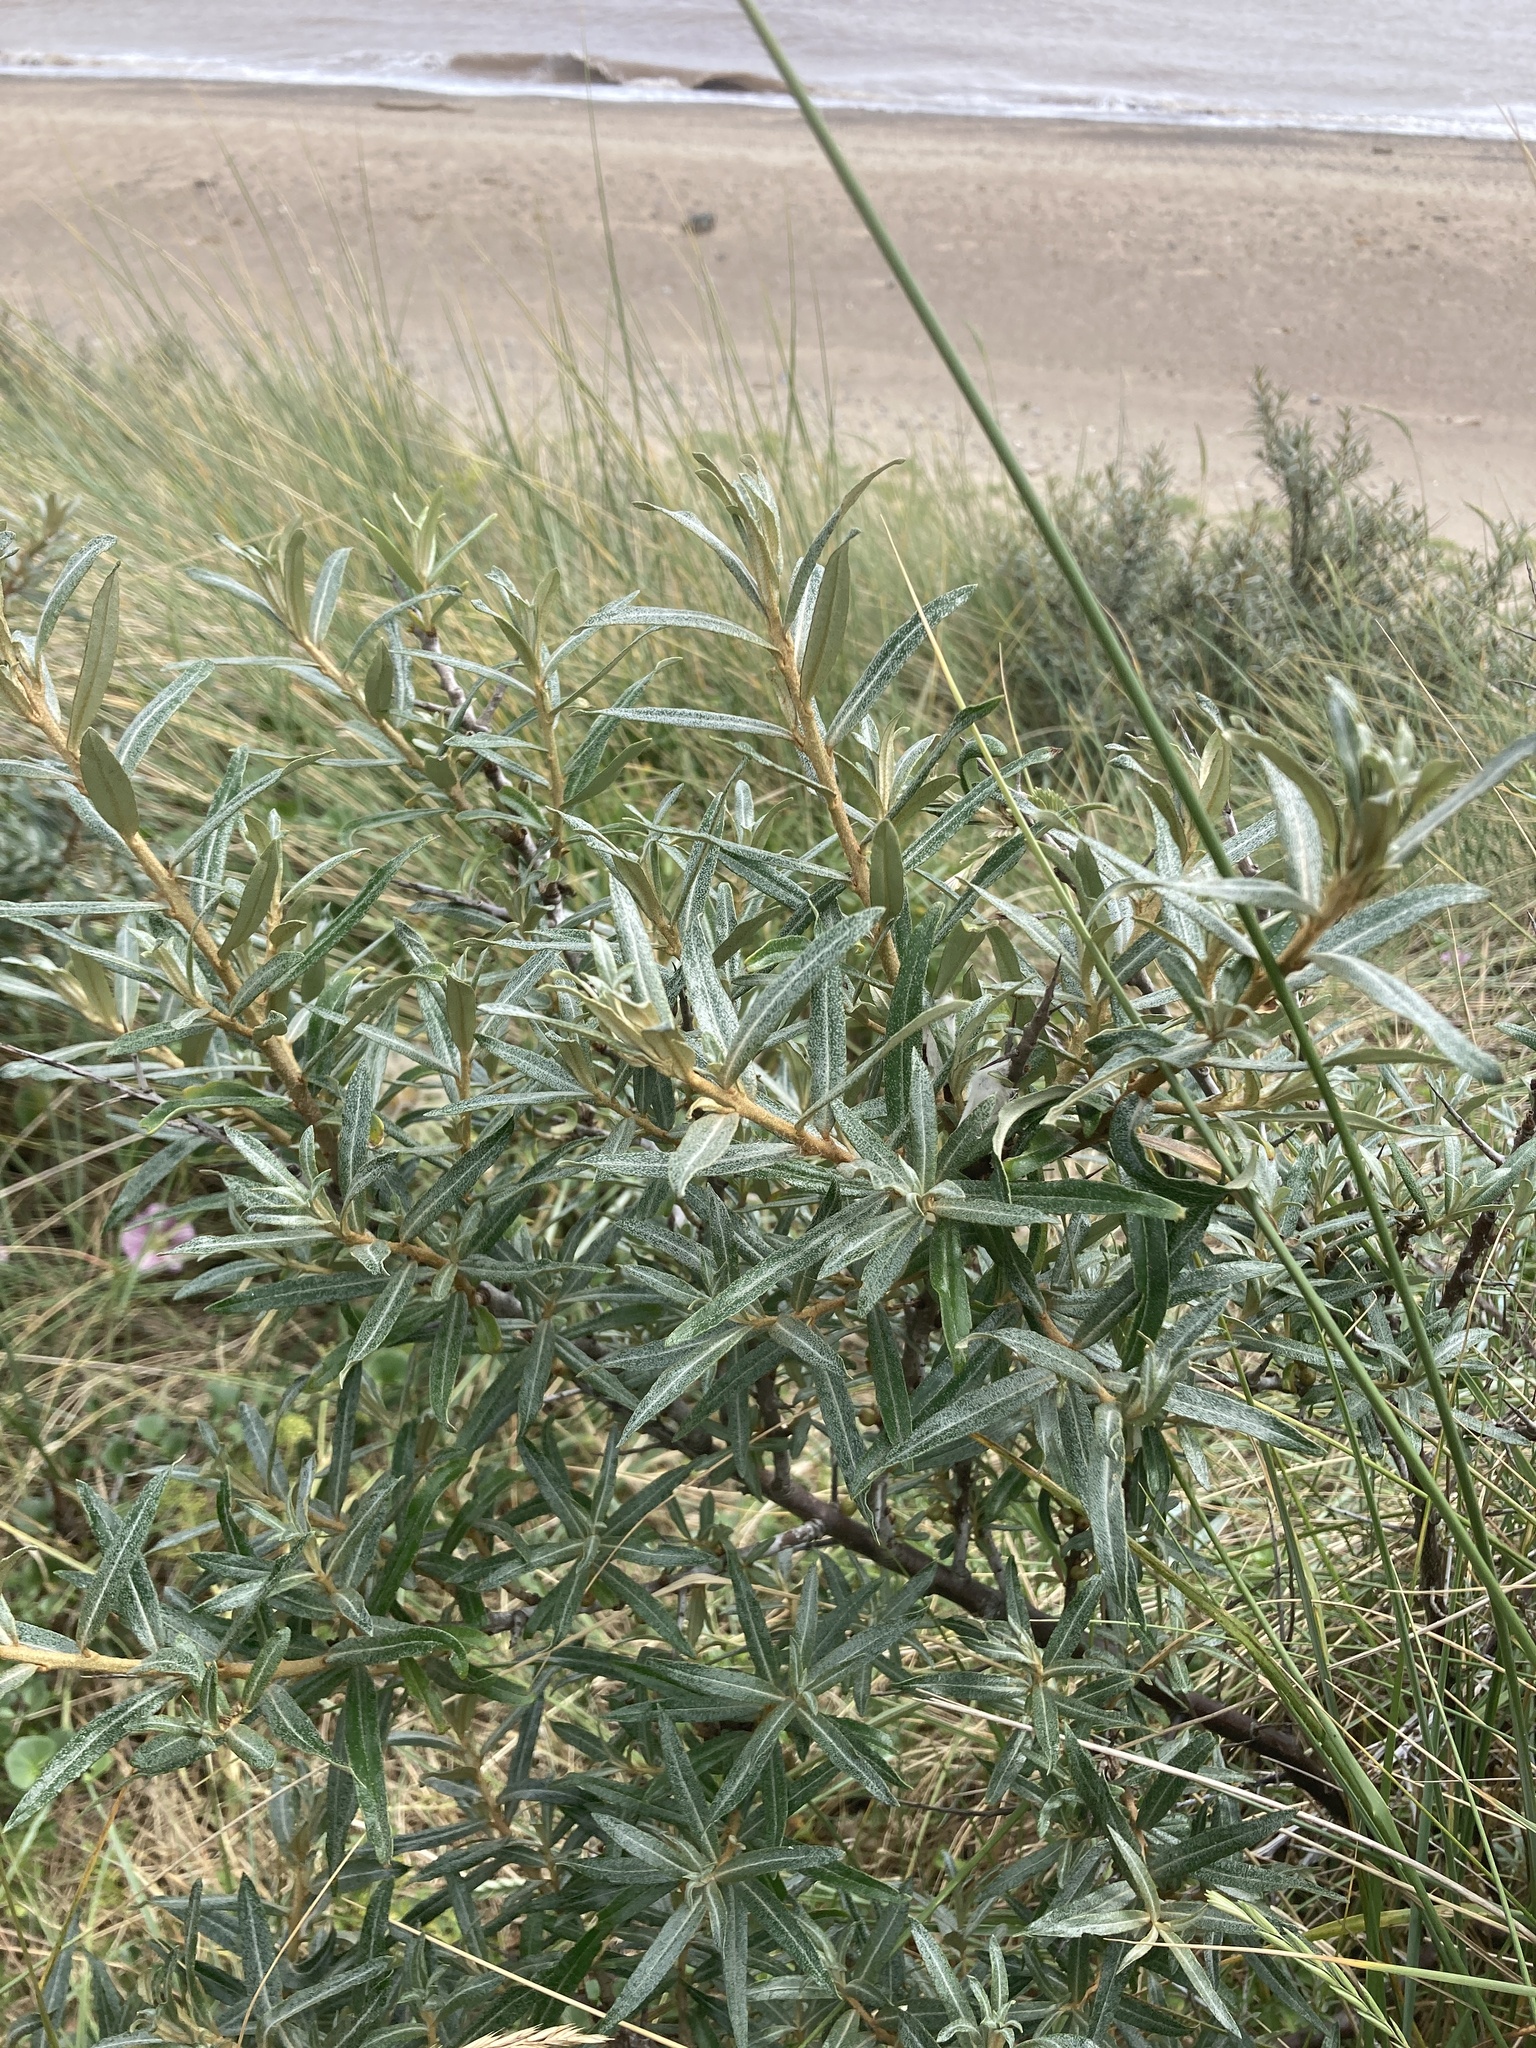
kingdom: Plantae
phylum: Tracheophyta
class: Magnoliopsida
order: Rosales
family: Elaeagnaceae
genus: Hippophae
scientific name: Hippophae rhamnoides
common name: Sea-buckthorn
